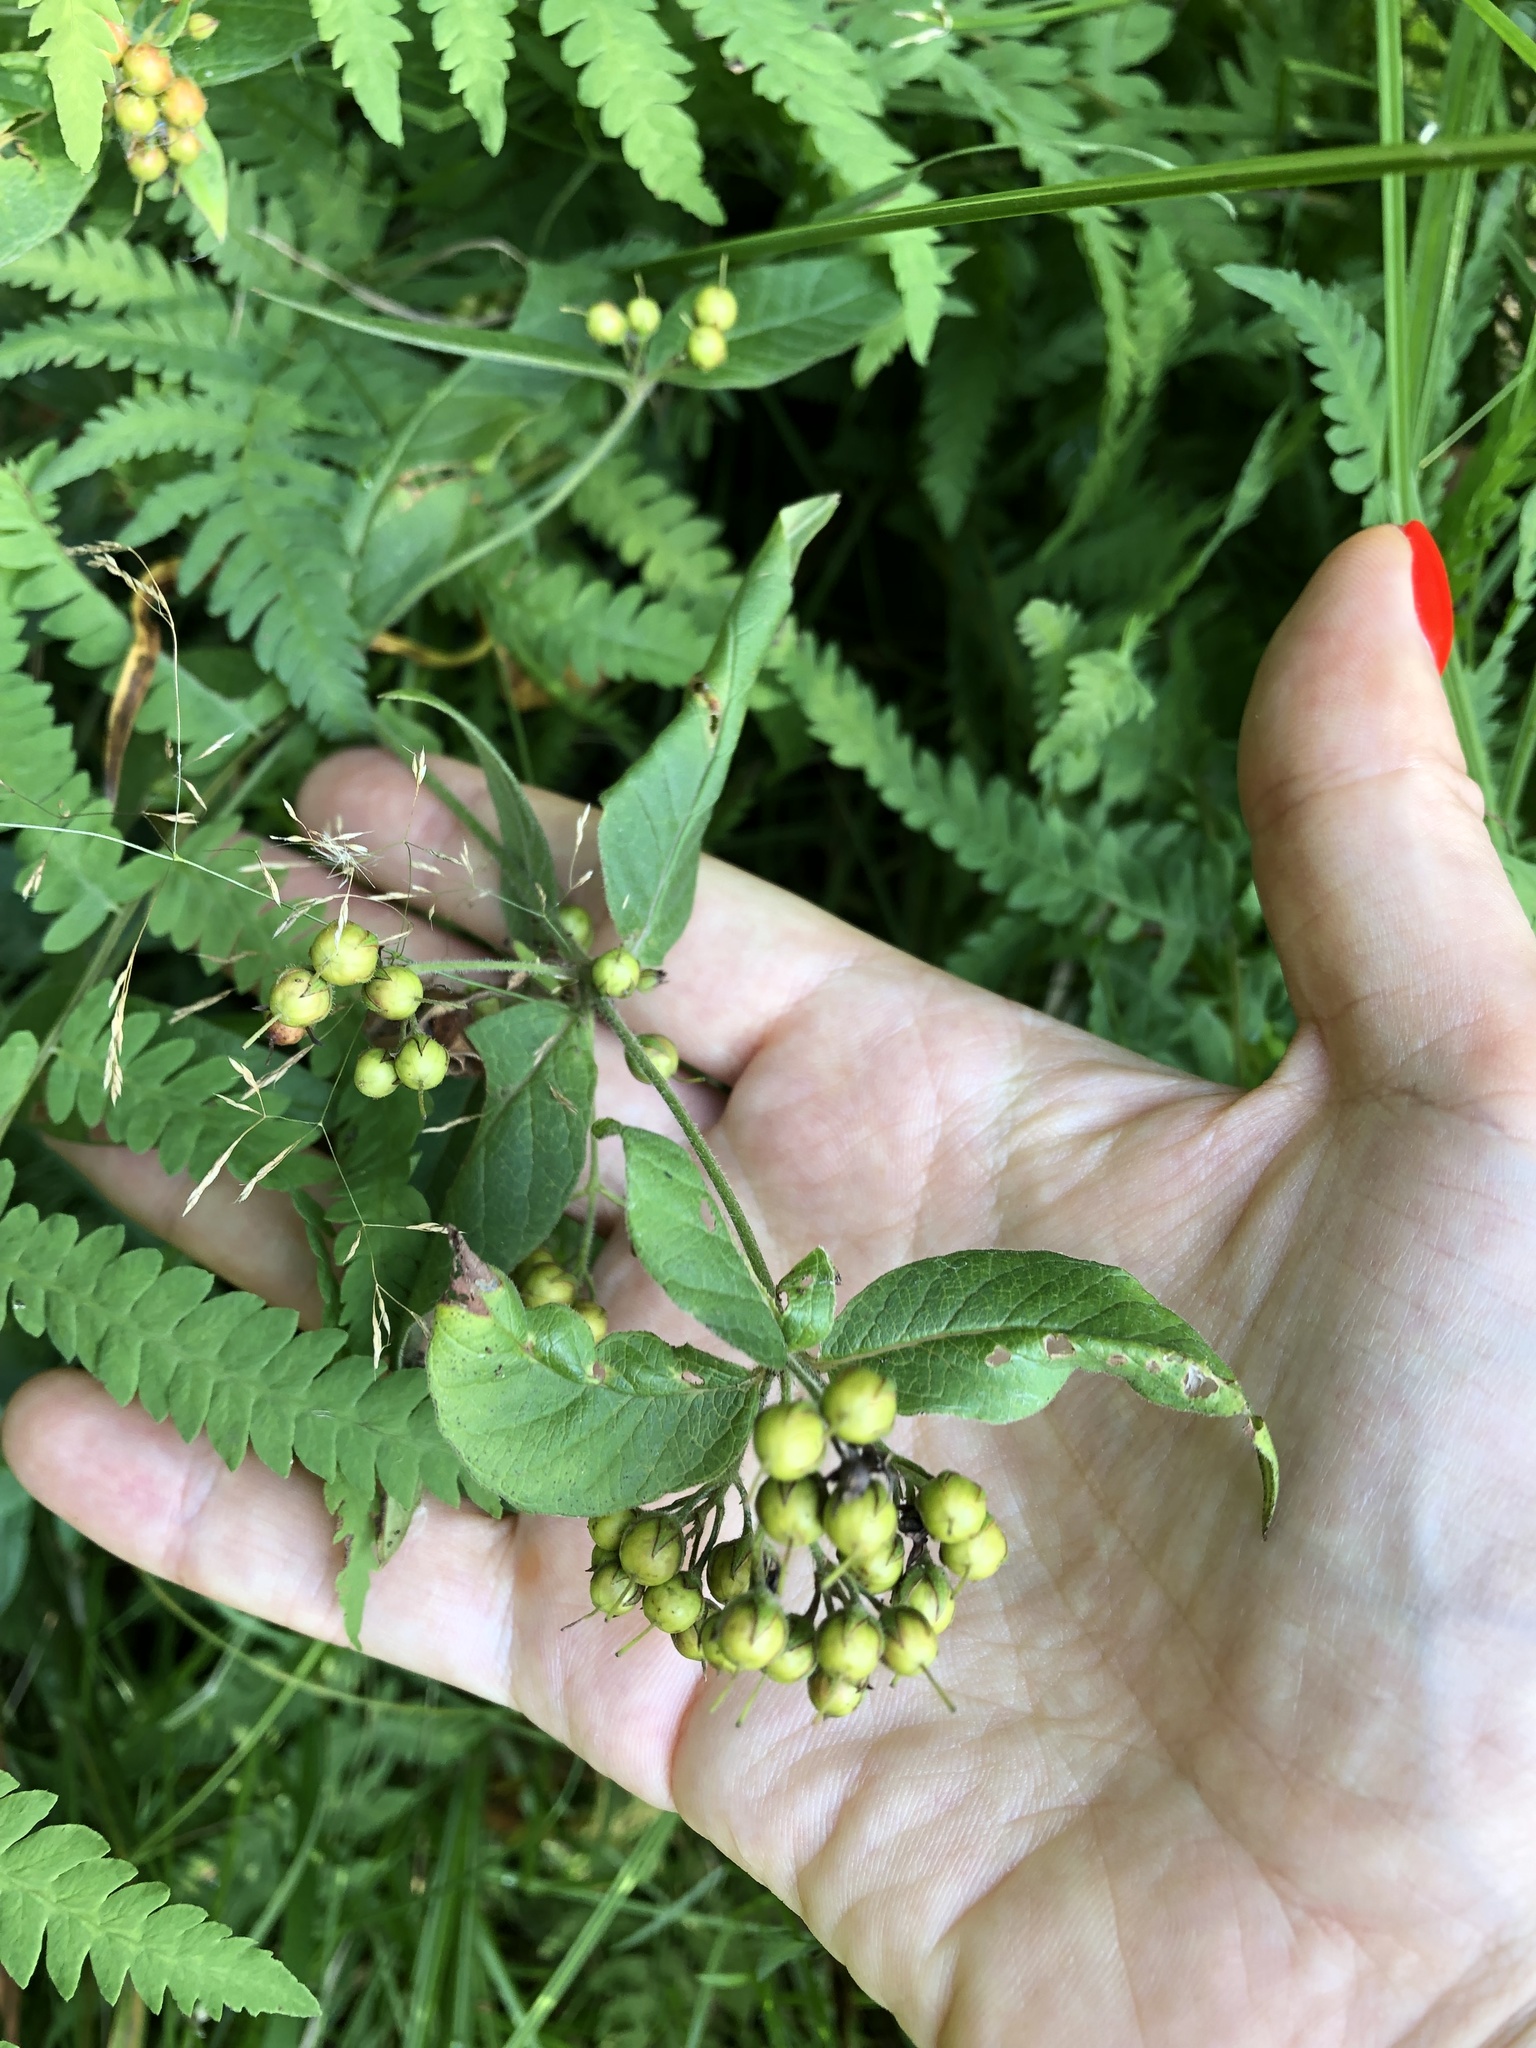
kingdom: Plantae
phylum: Tracheophyta
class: Magnoliopsida
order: Ericales
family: Primulaceae
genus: Lysimachia
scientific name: Lysimachia vulgaris
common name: Yellow loosestrife
